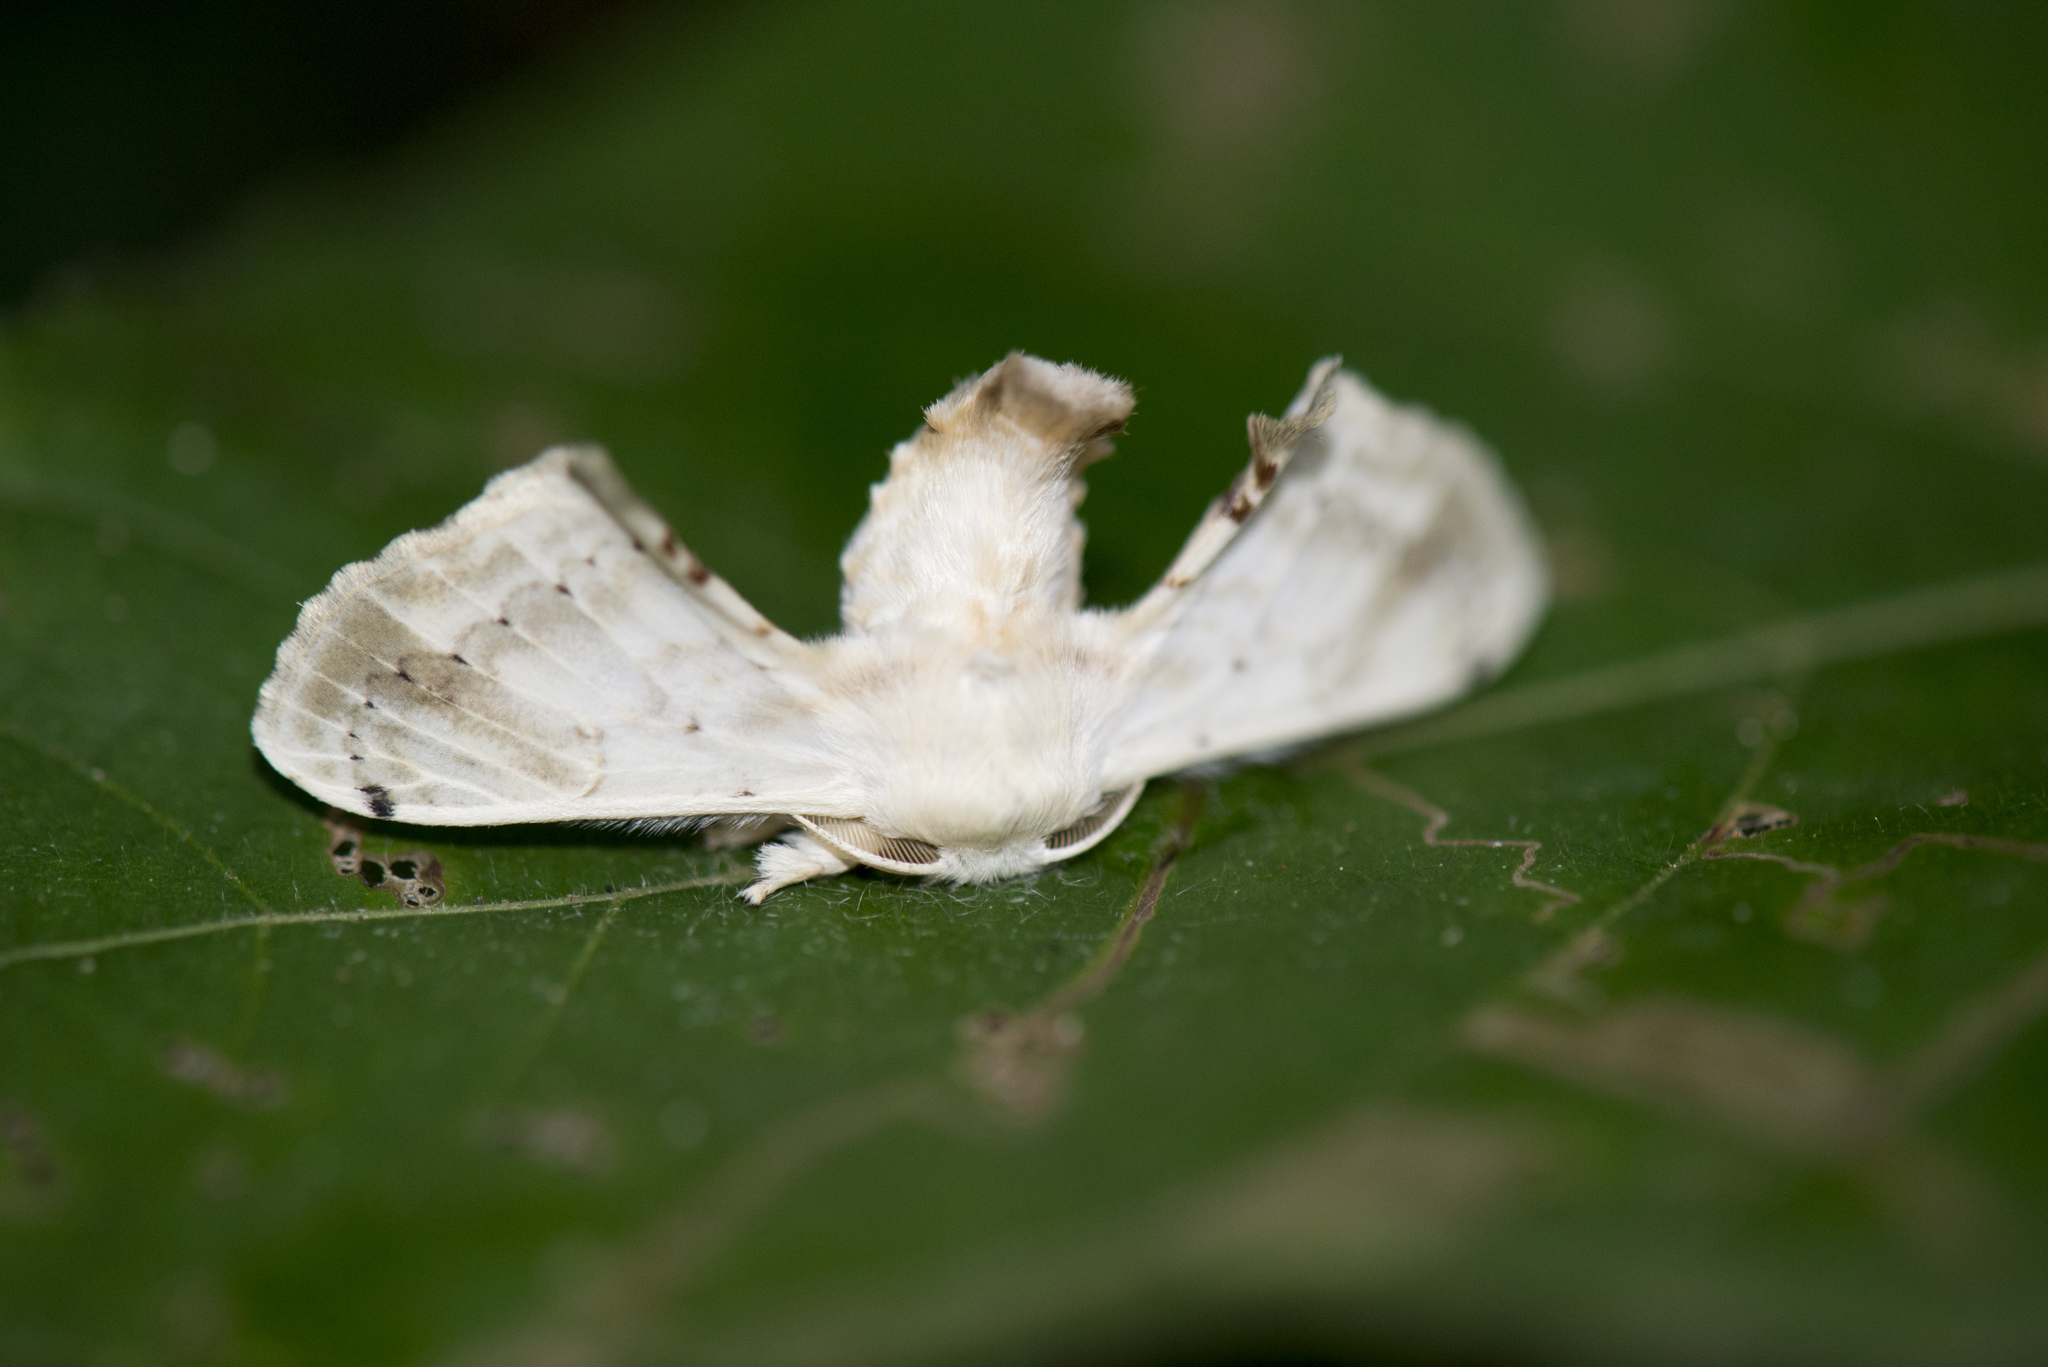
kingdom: Animalia
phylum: Arthropoda
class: Insecta
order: Lepidoptera
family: Bombycidae
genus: Ernolatia
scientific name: Ernolatia moorei
